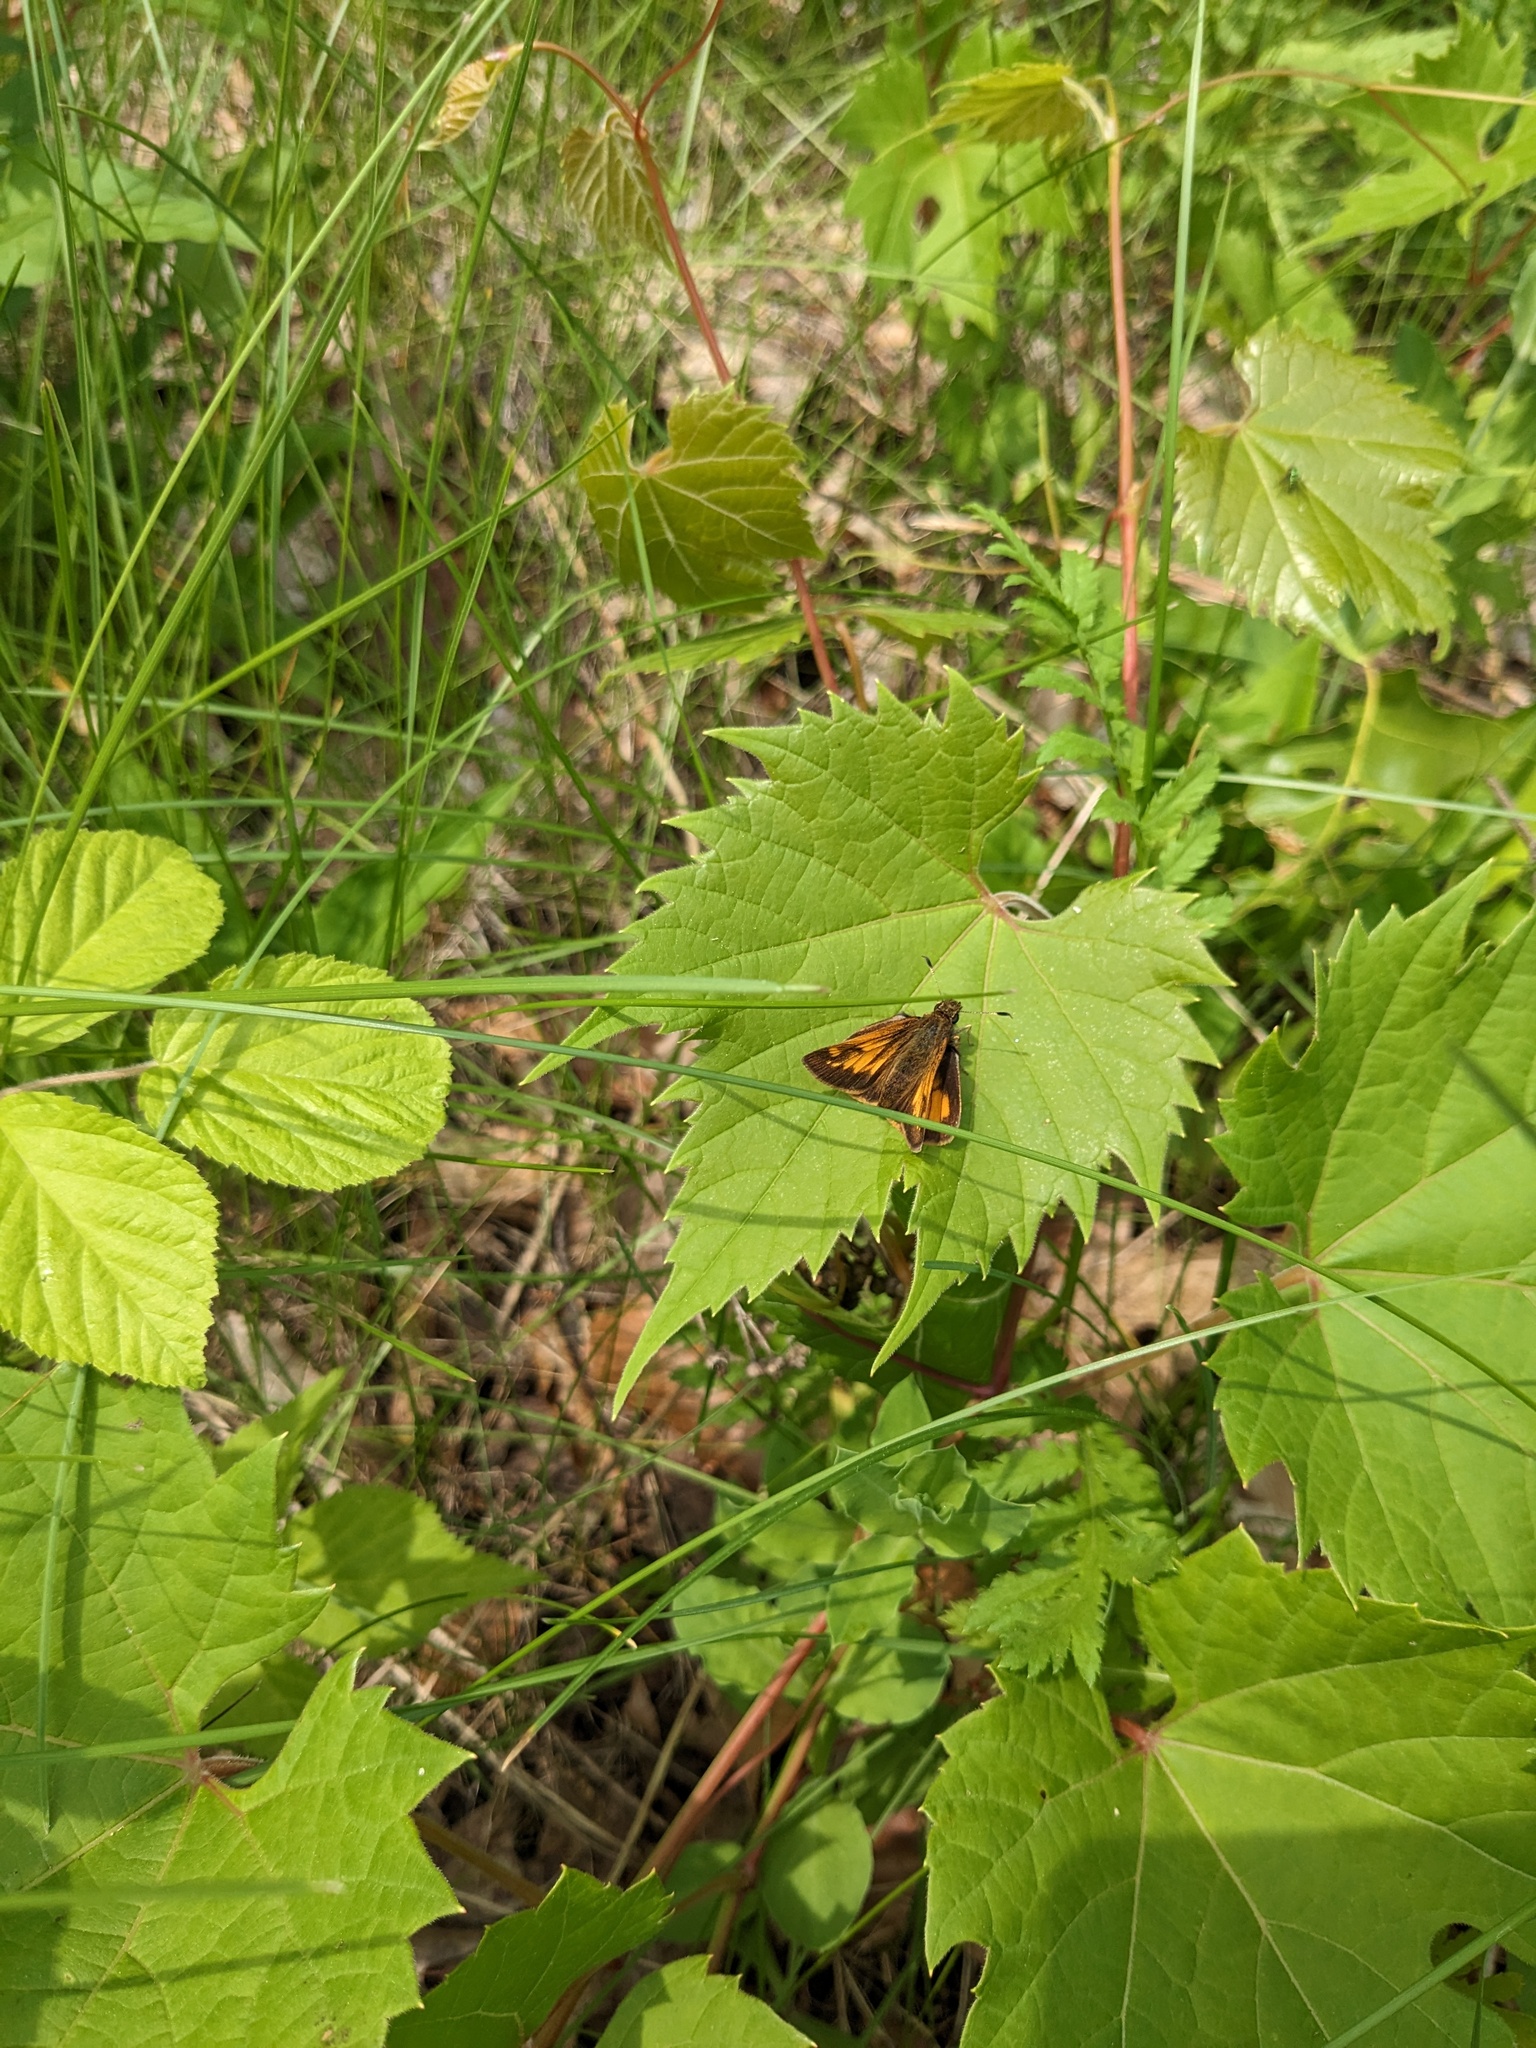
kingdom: Animalia
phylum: Arthropoda
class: Insecta
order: Lepidoptera
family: Hesperiidae
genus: Lon
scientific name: Lon hobomok
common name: Hobomok skipper
